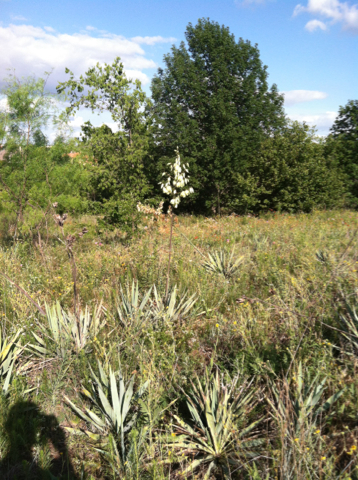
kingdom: Plantae
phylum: Tracheophyta
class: Liliopsida
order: Asparagales
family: Asparagaceae
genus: Yucca
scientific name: Yucca pallida
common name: Pale leaf yucca
